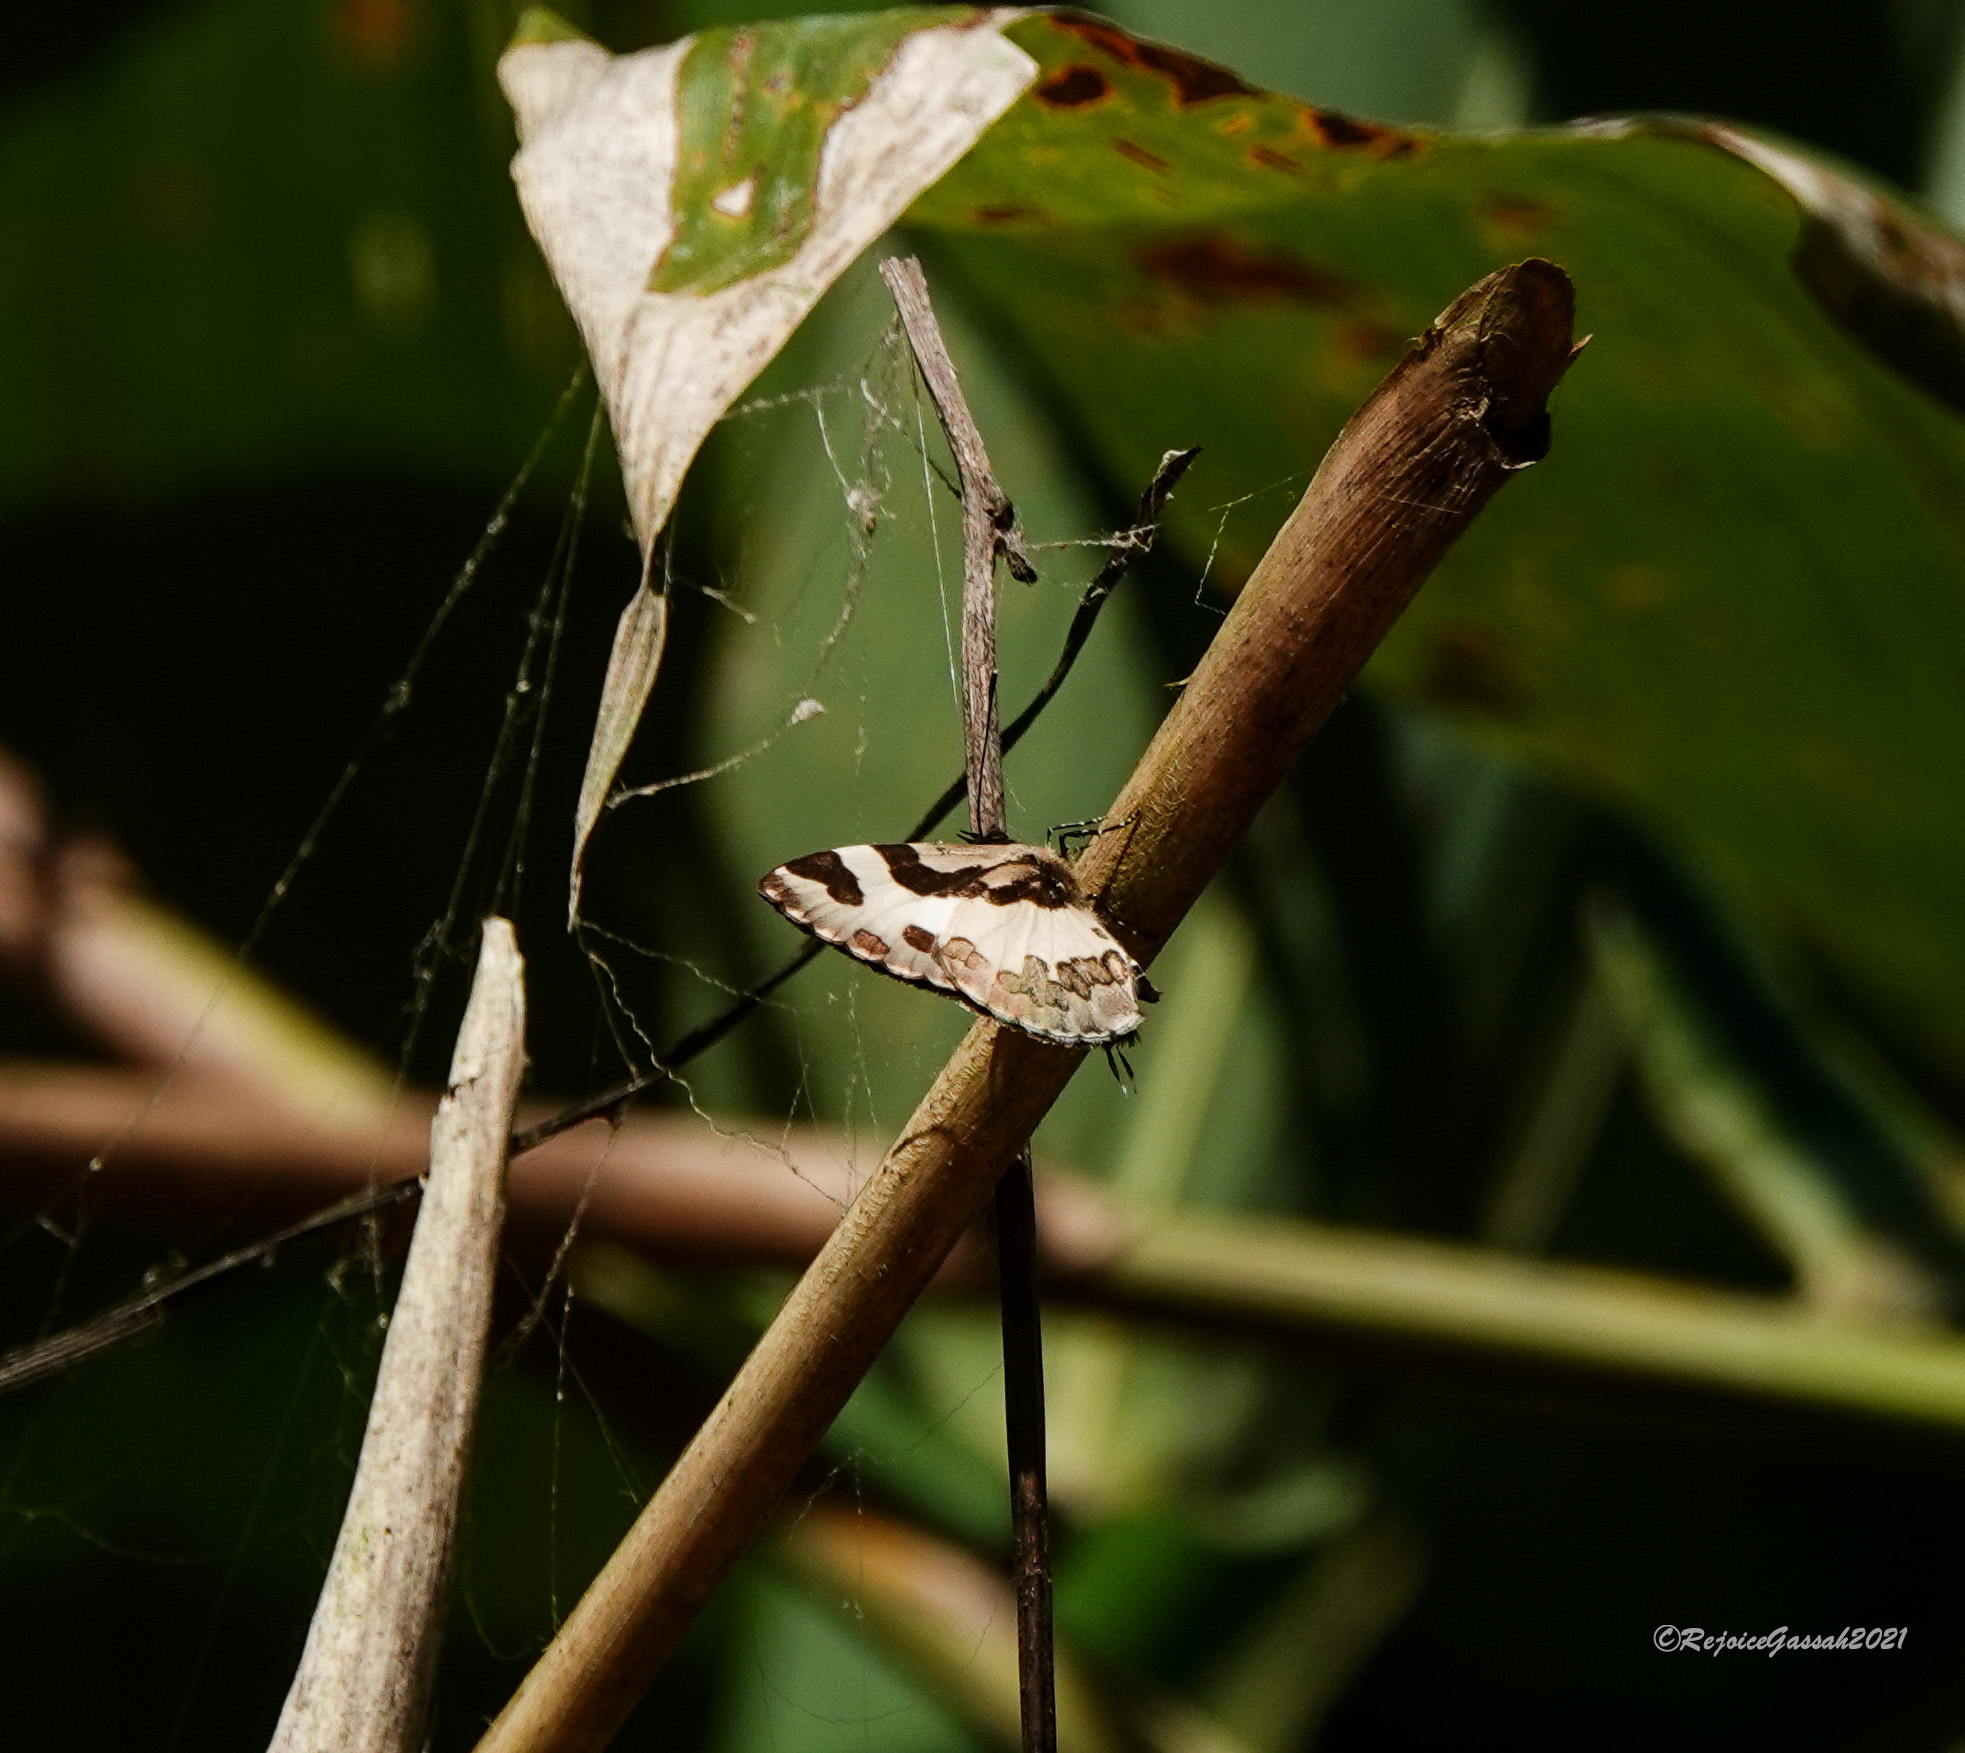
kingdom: Animalia
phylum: Arthropoda
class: Insecta
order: Lepidoptera
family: Lycaenidae
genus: Caleta
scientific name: Caleta elna
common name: Elbowed pierrot
